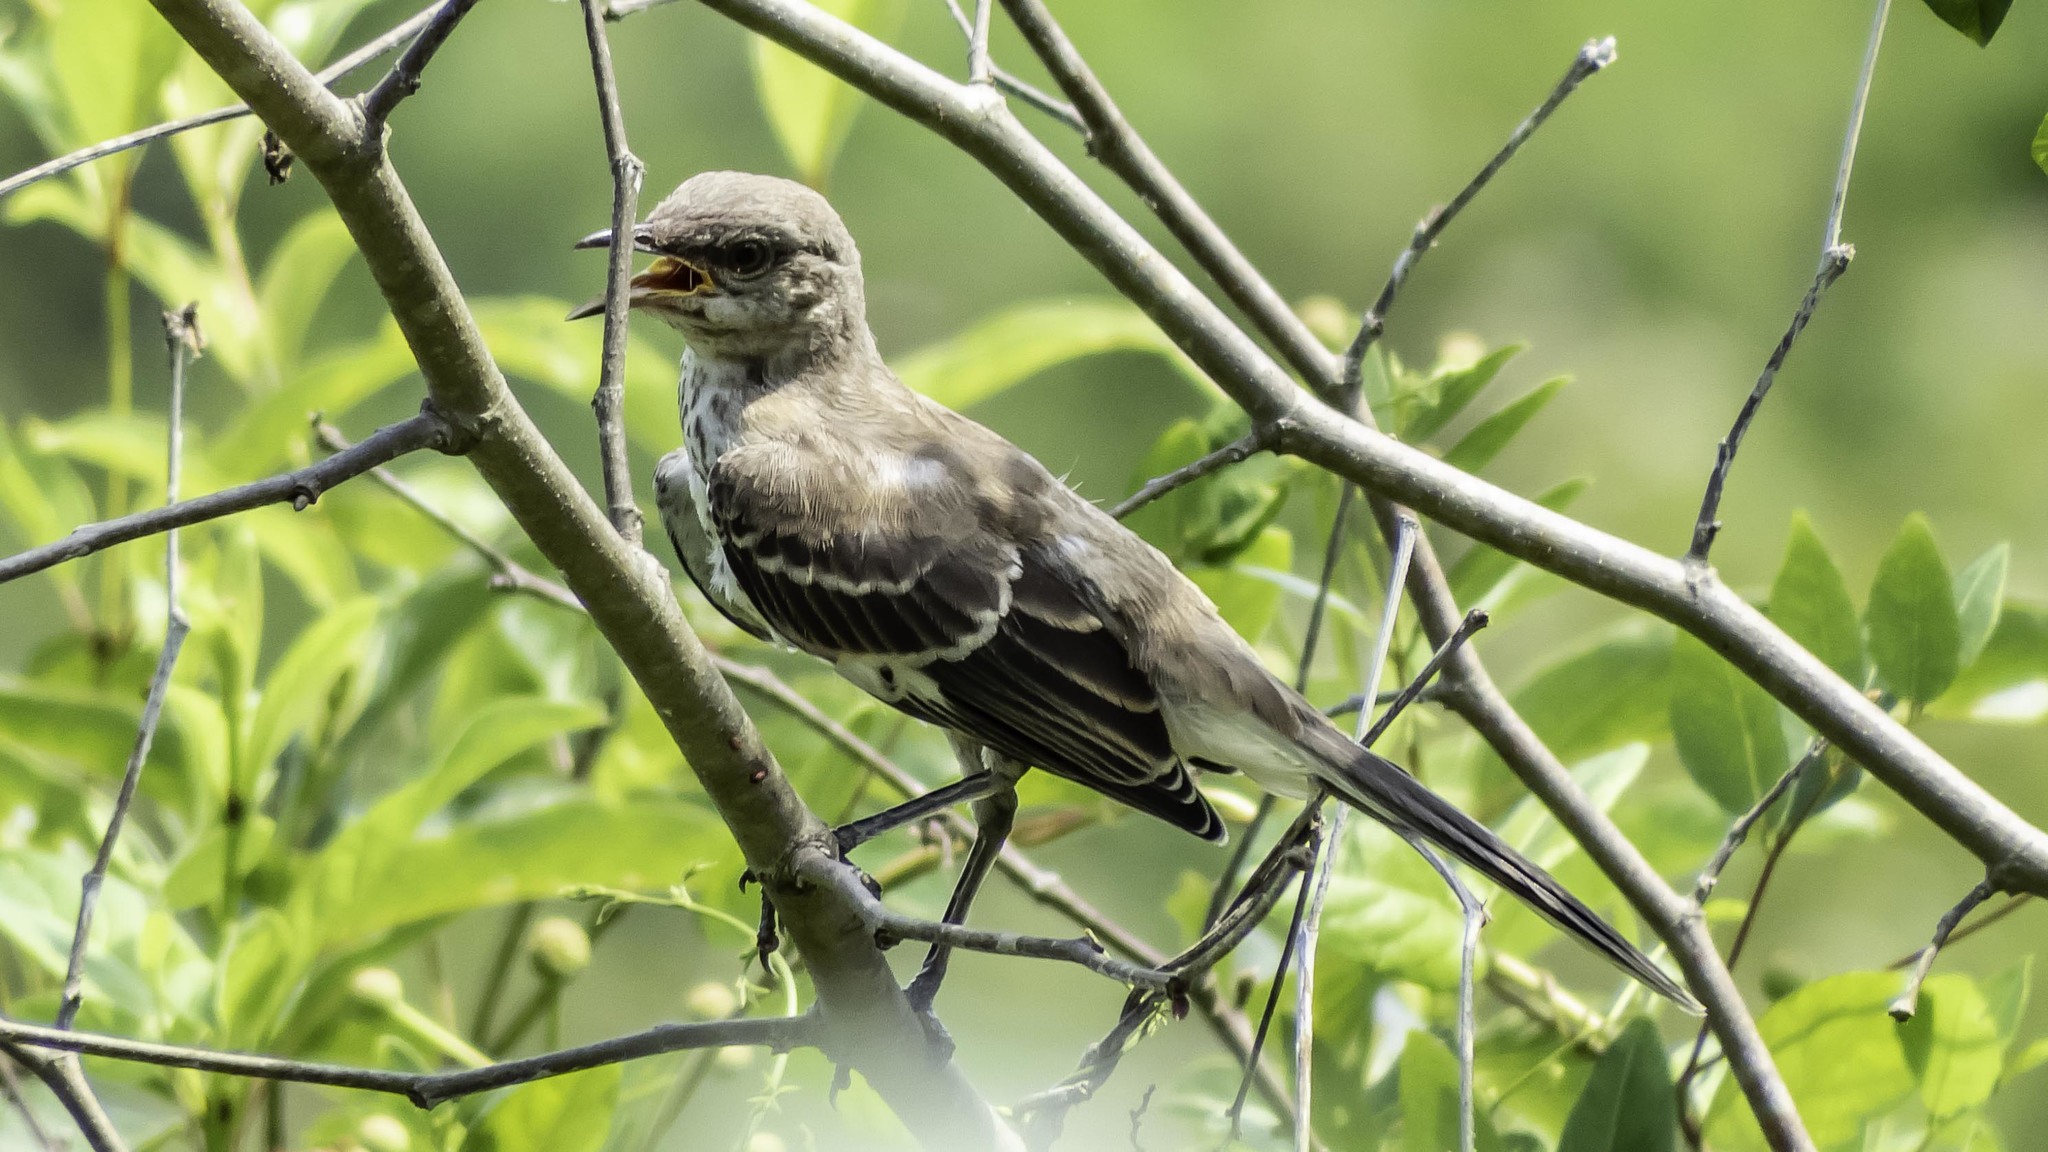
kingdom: Animalia
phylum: Chordata
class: Aves
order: Passeriformes
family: Mimidae
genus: Mimus
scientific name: Mimus polyglottos
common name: Northern mockingbird
